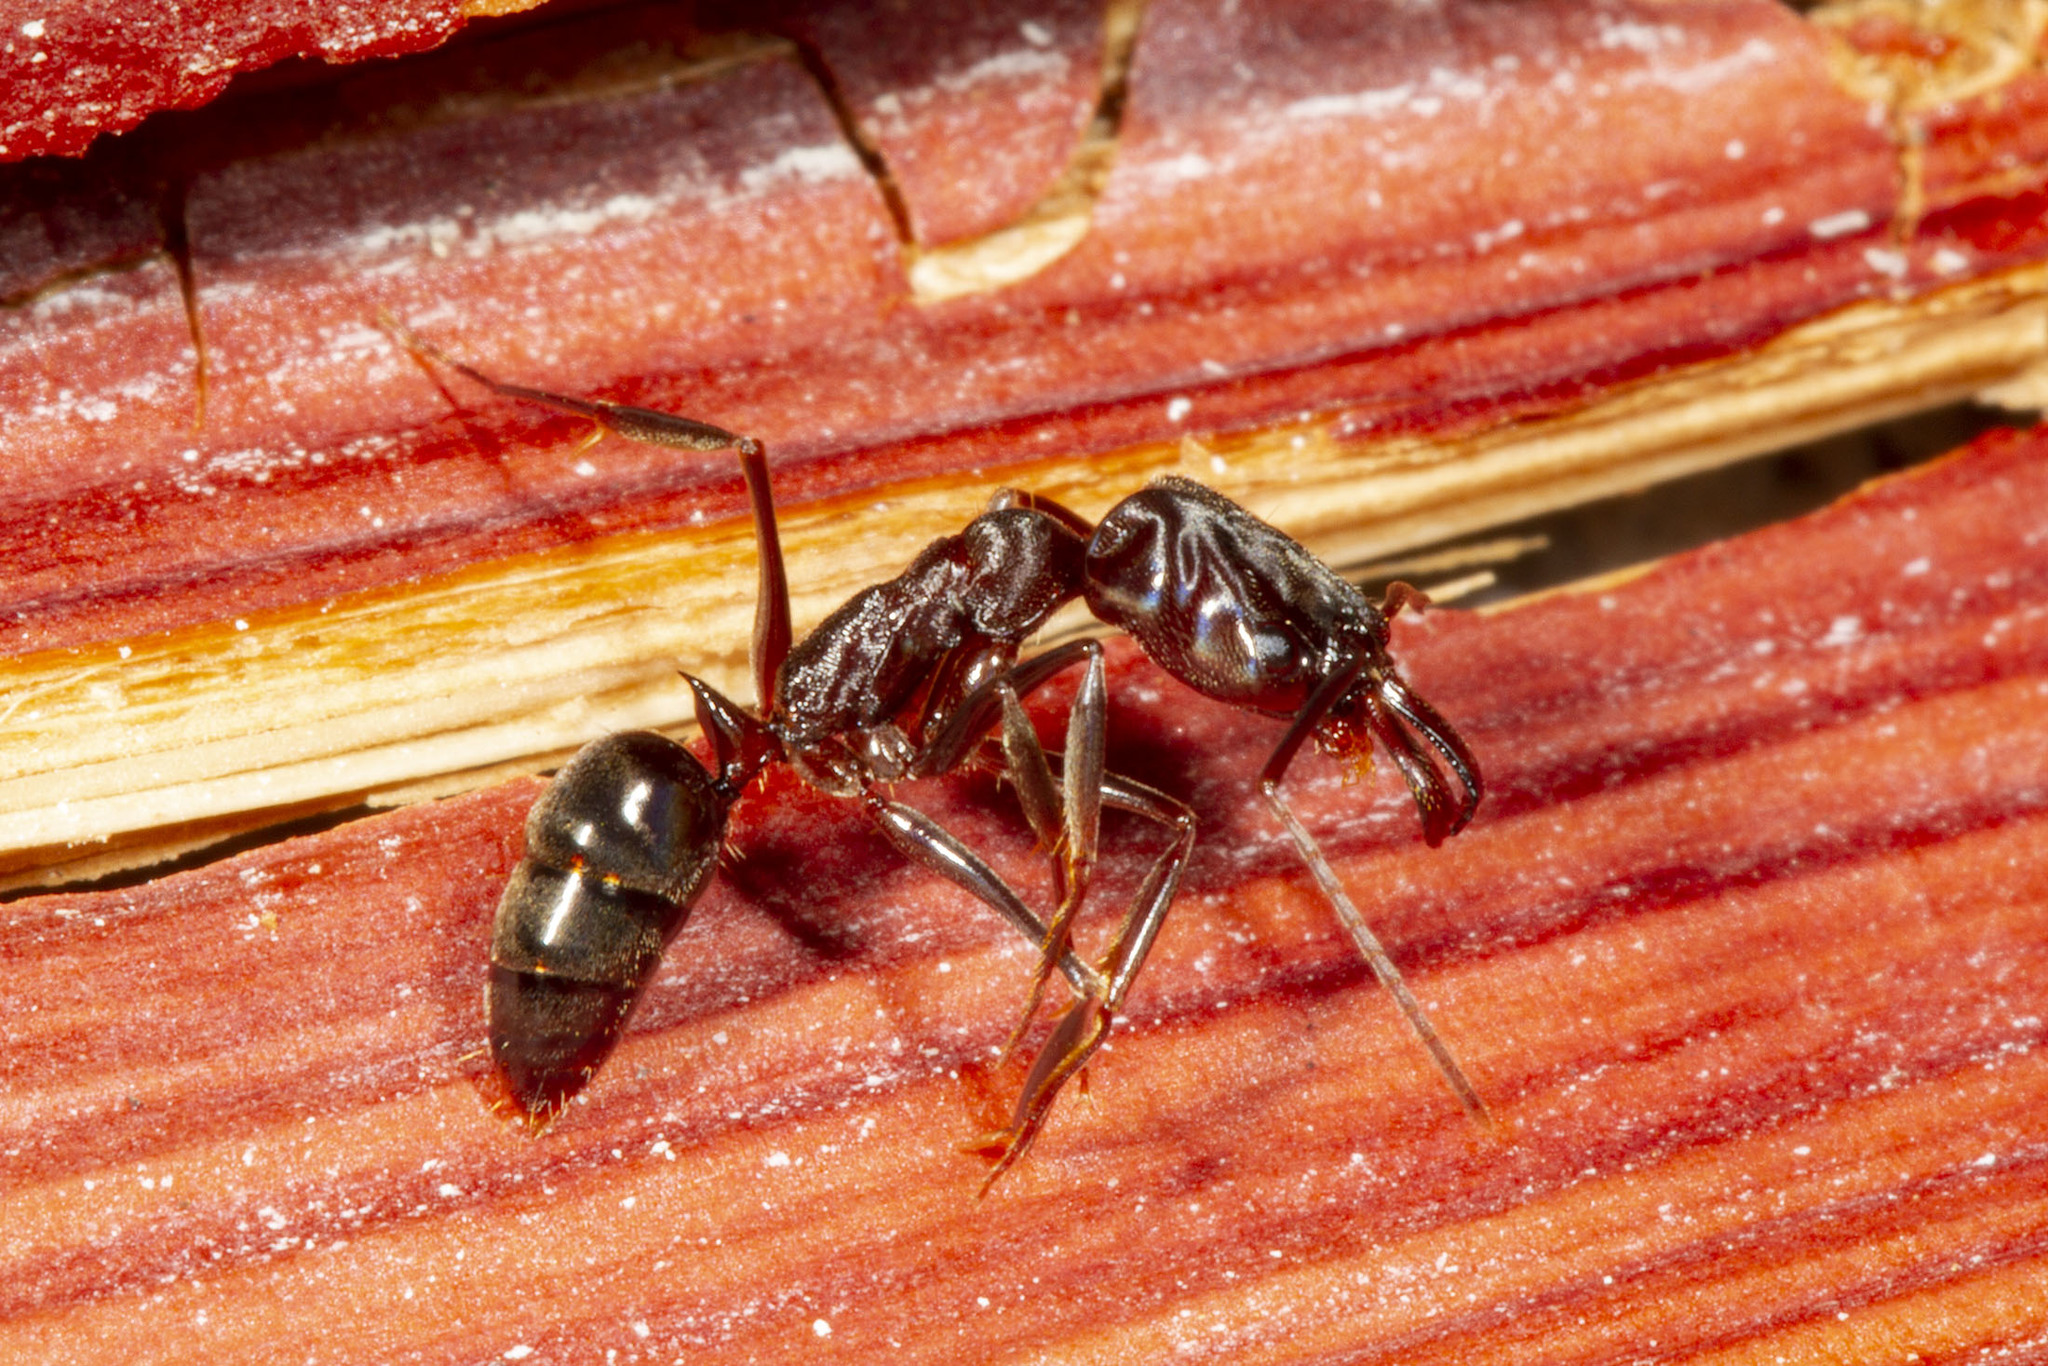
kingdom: Animalia
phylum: Arthropoda
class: Insecta
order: Hymenoptera
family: Formicidae
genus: Odontomachus
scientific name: Odontomachus brunneus
